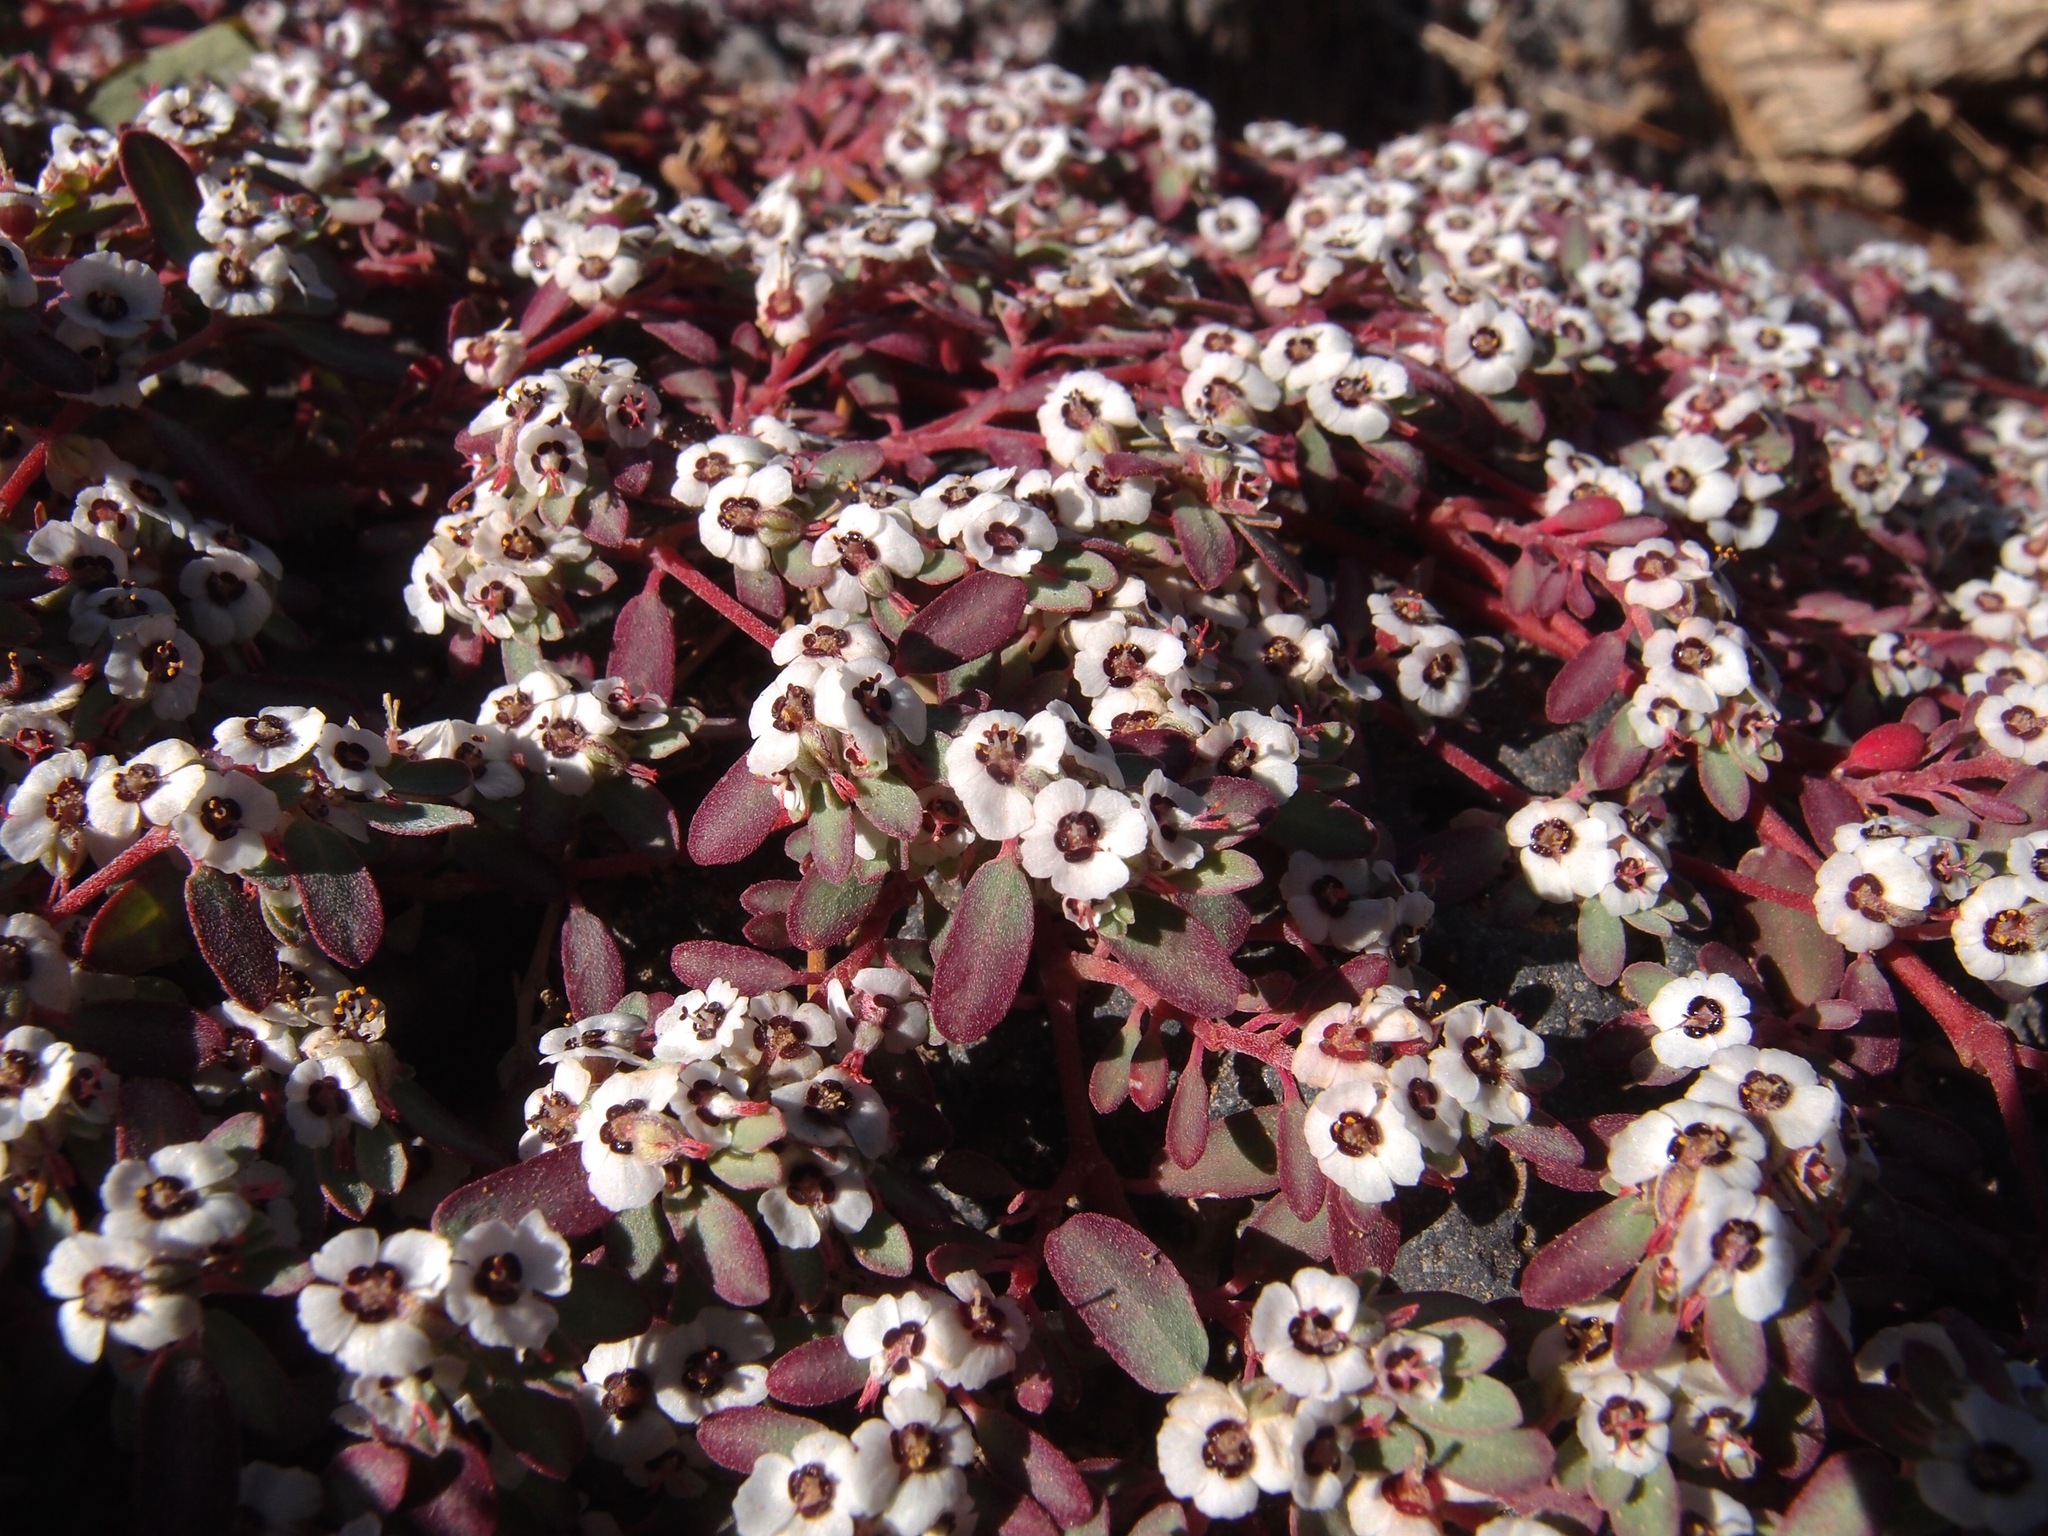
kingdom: Plantae
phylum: Tracheophyta
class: Magnoliopsida
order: Malpighiales
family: Euphorbiaceae
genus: Euphorbia
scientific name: Euphorbia pediculifera
